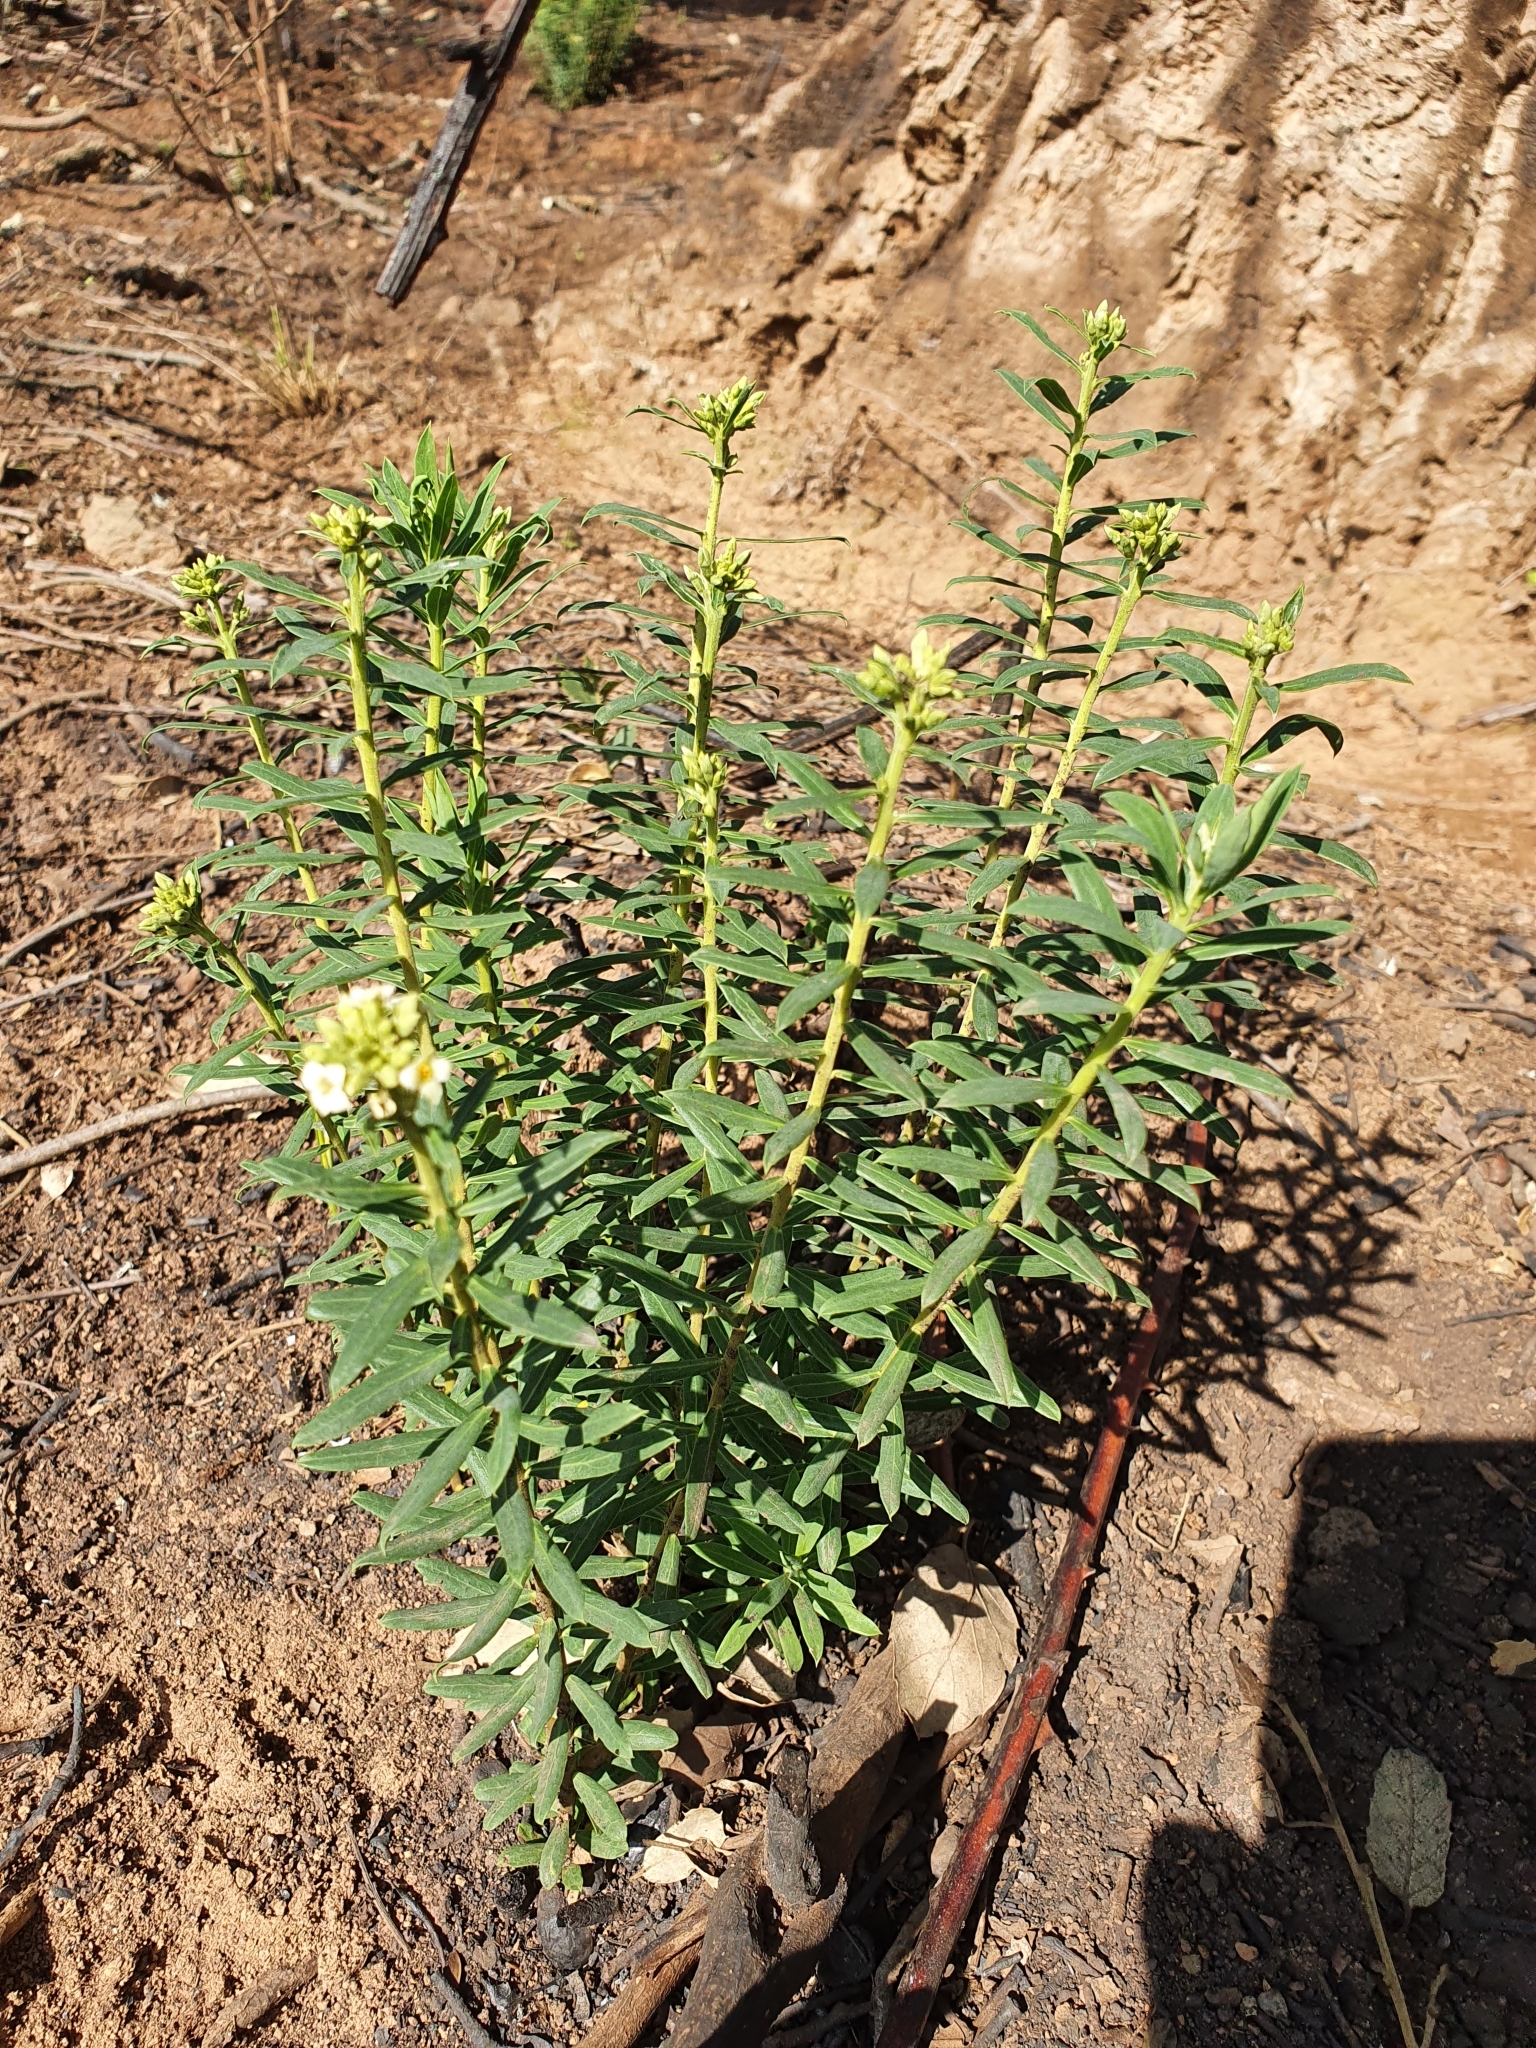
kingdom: Plantae
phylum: Tracheophyta
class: Magnoliopsida
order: Malvales
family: Thymelaeaceae
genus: Daphne
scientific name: Daphne gnidium
